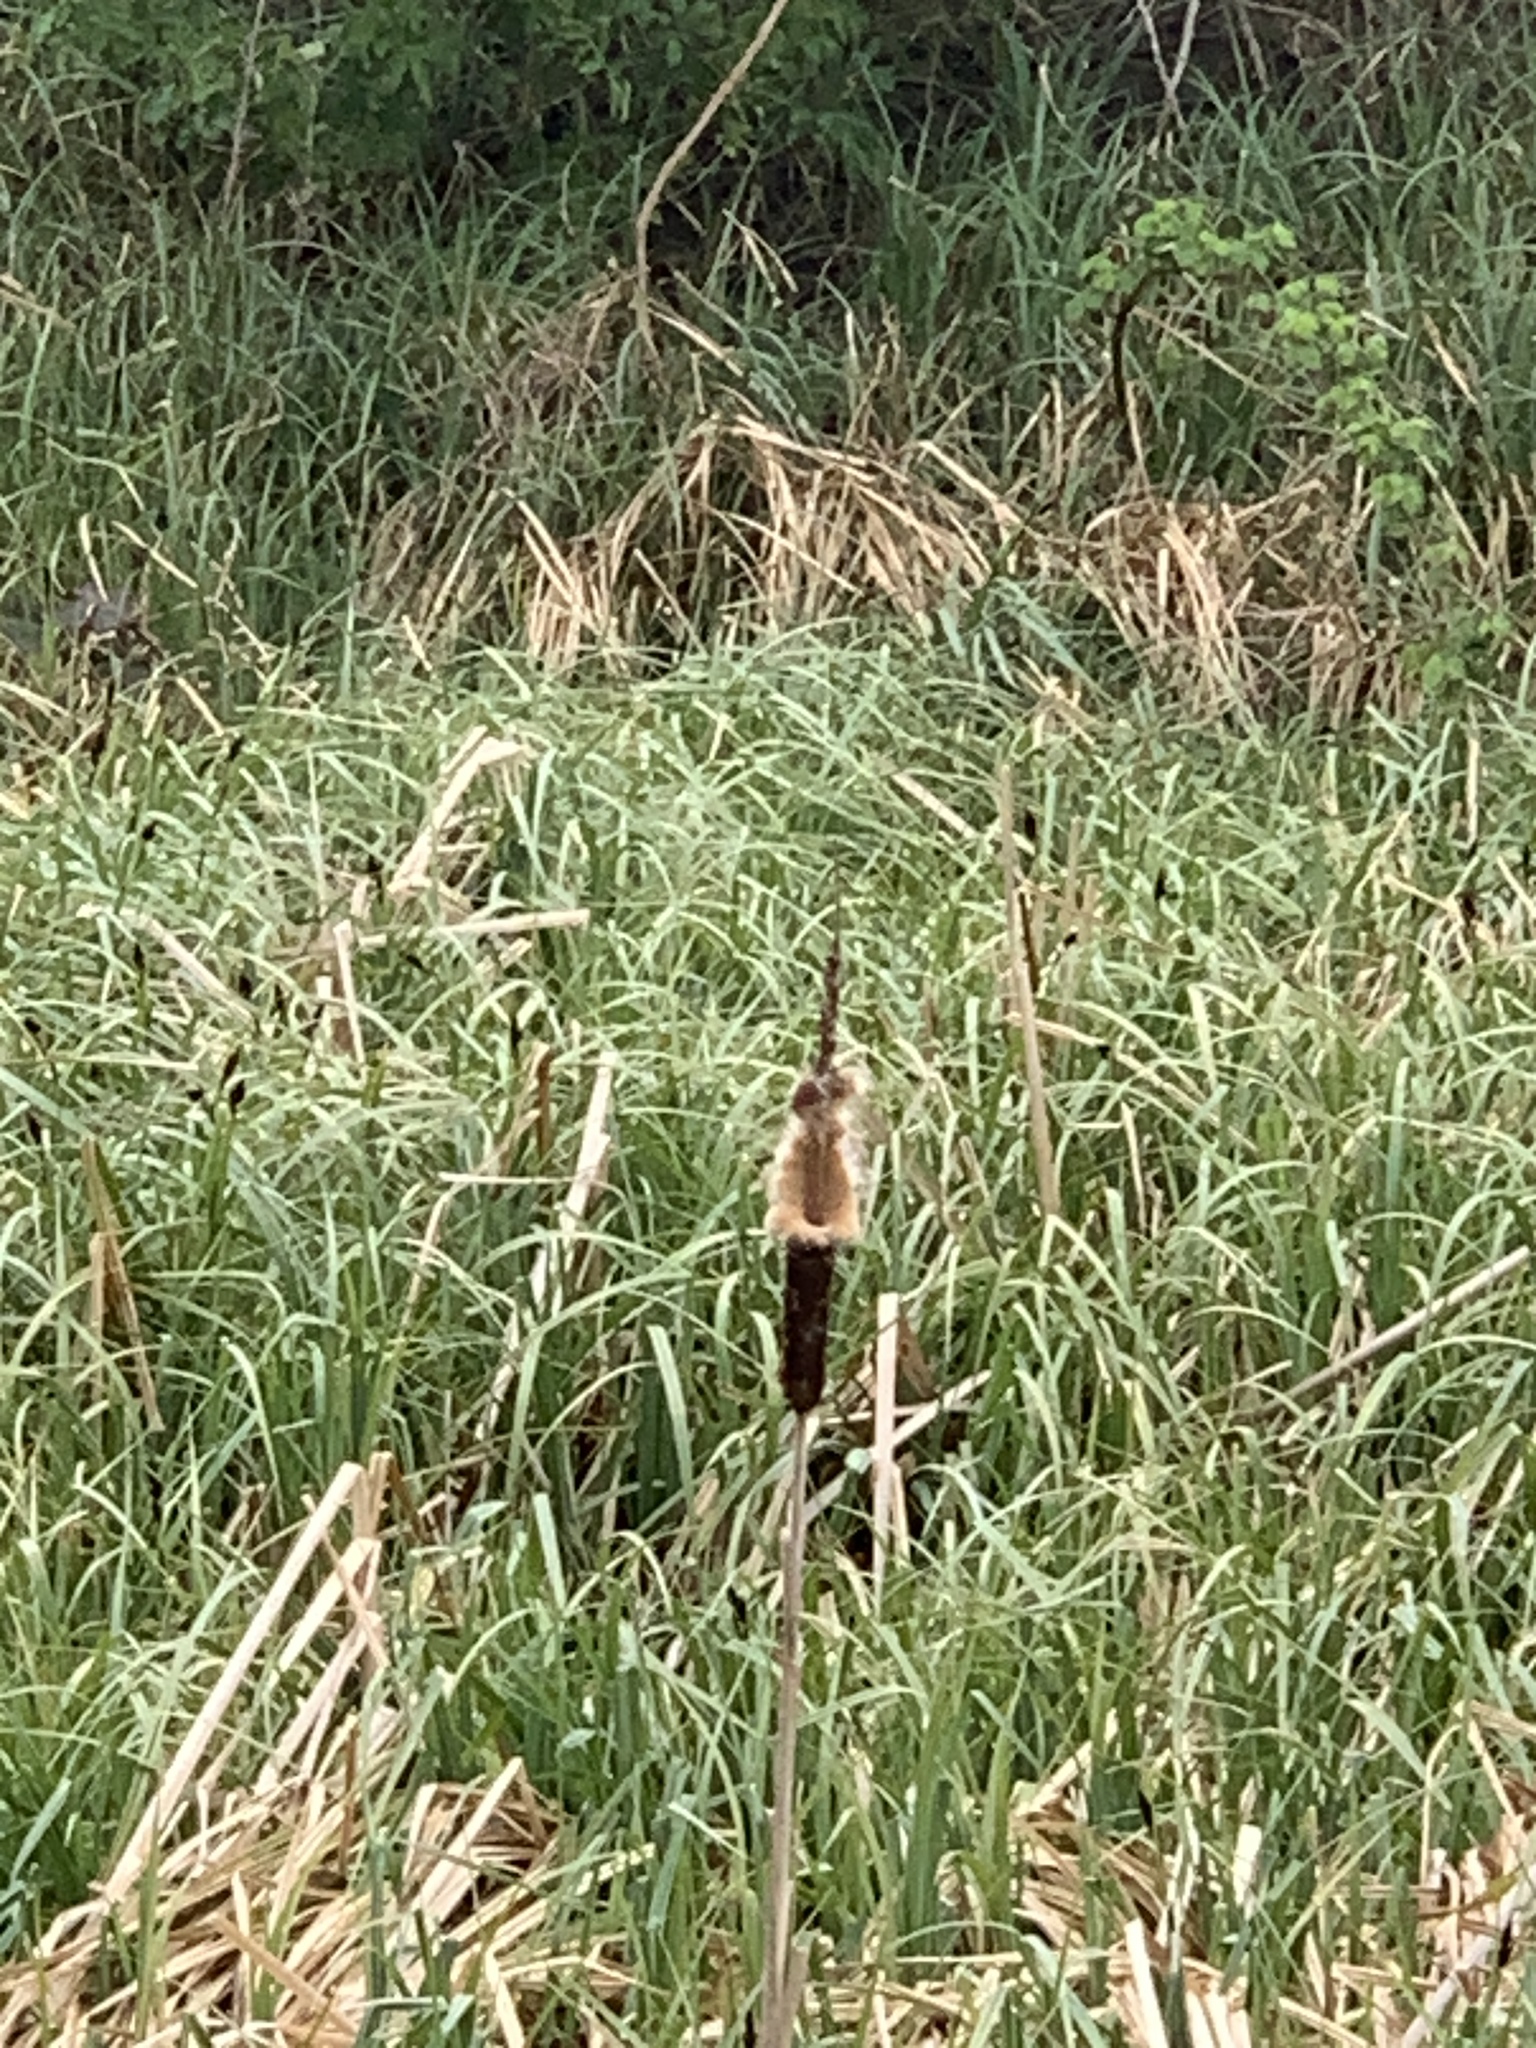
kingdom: Plantae
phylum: Tracheophyta
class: Liliopsida
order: Poales
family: Typhaceae
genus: Typha
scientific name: Typha latifolia
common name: Broadleaf cattail
